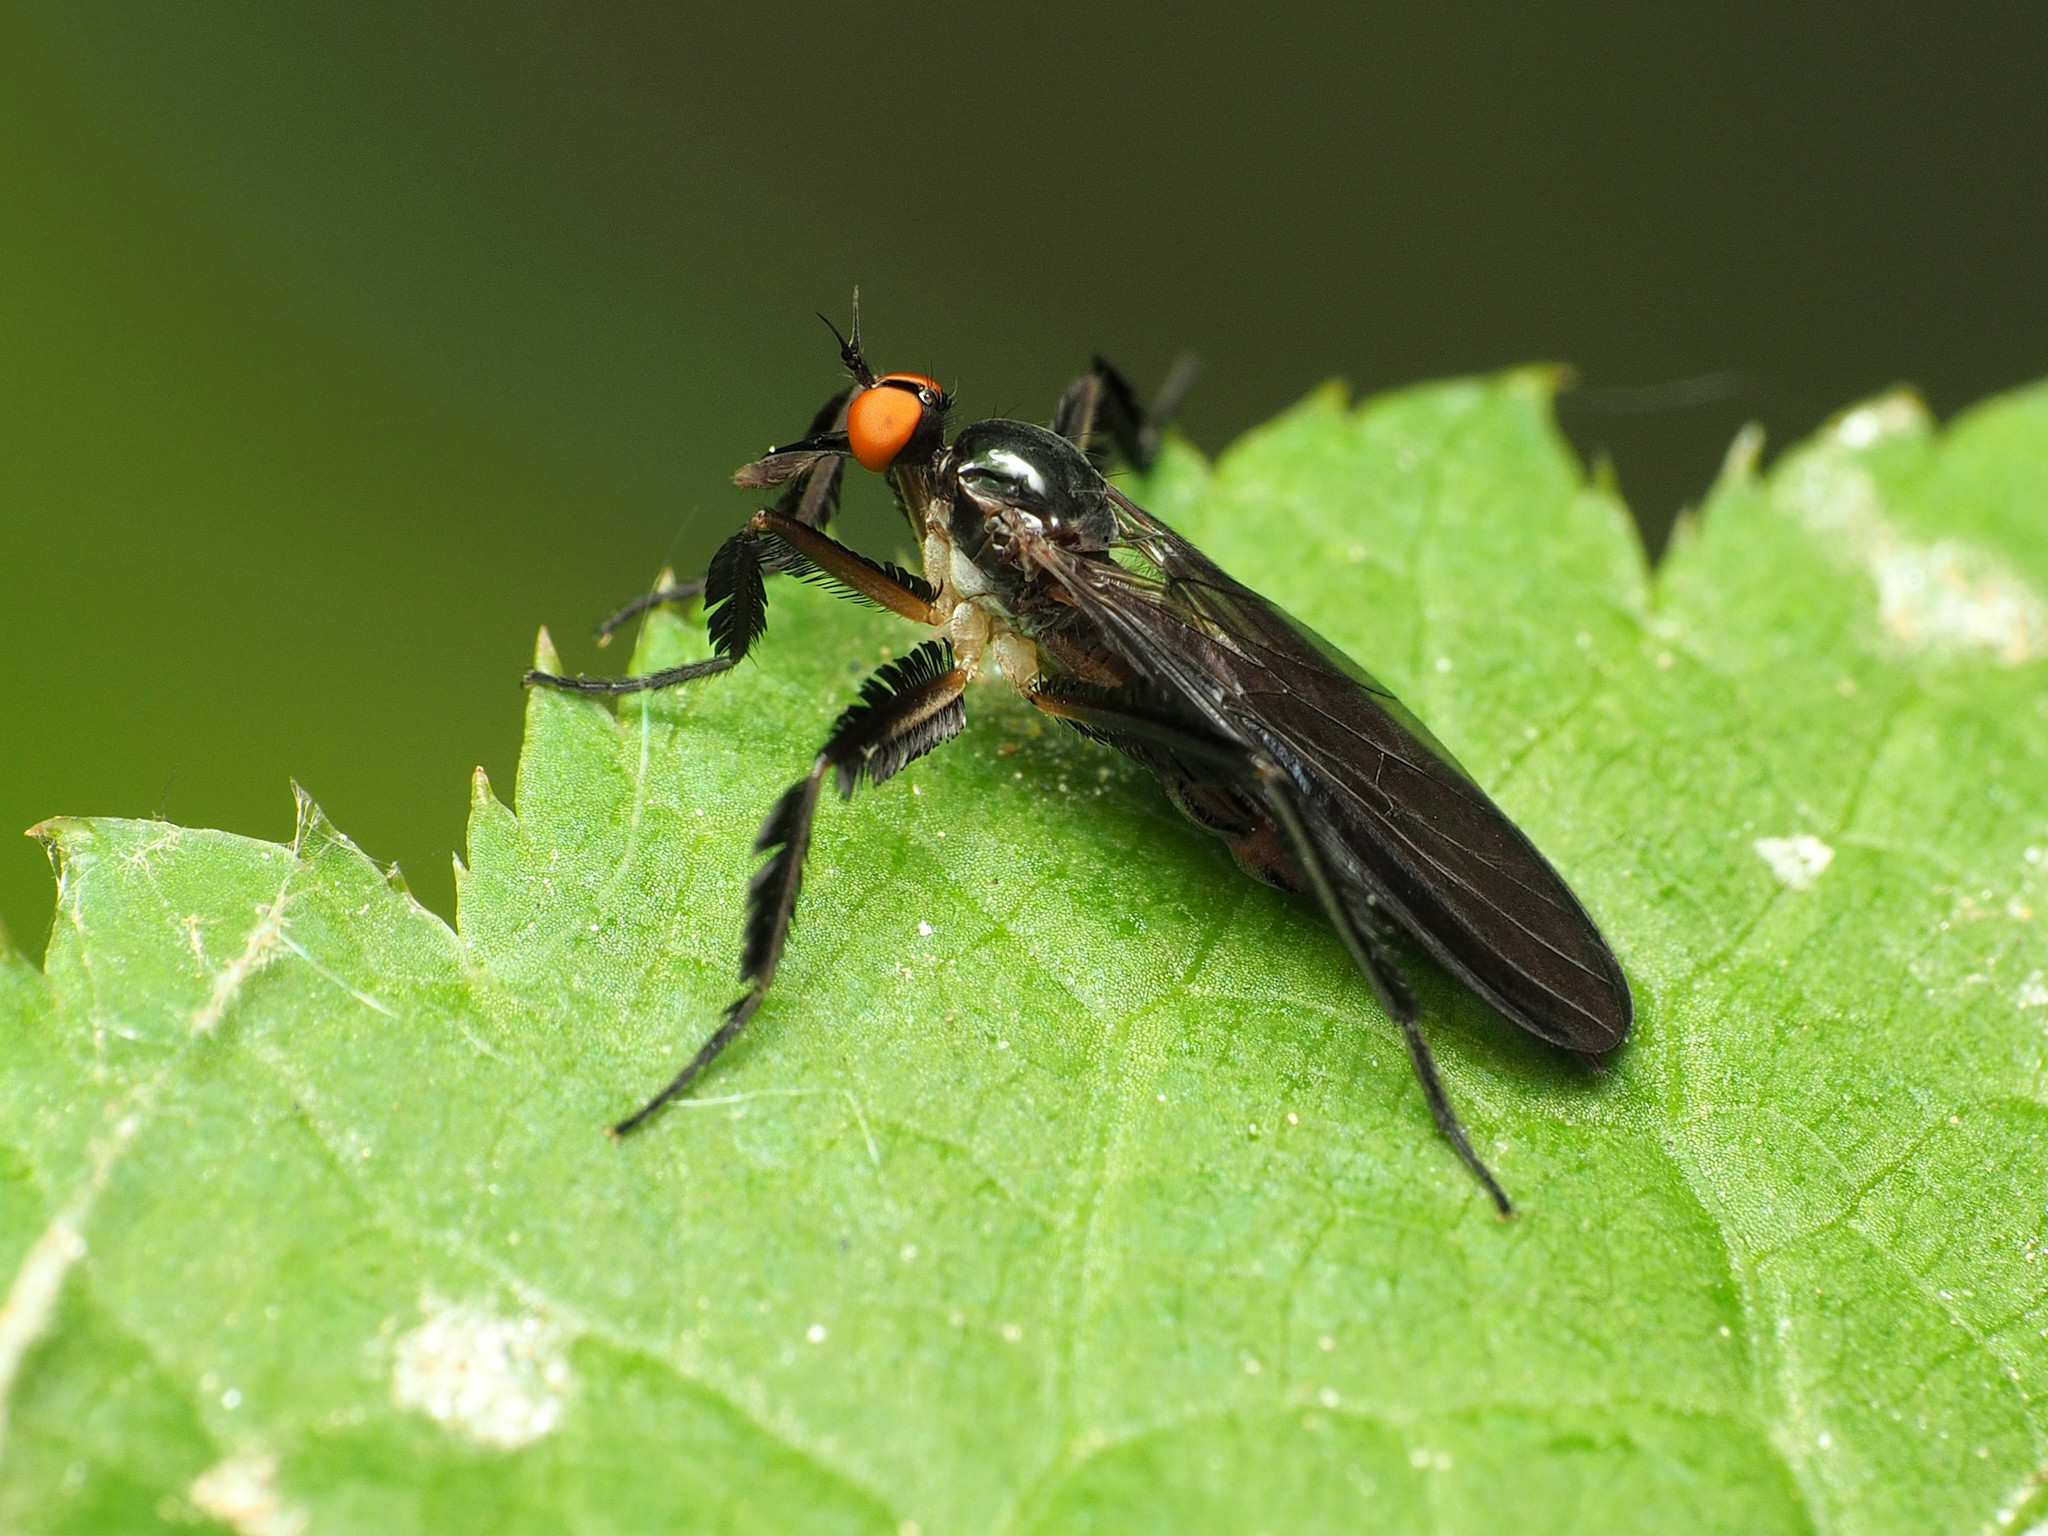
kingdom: Animalia
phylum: Arthropoda
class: Insecta
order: Diptera
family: Empididae
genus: Rhamphomyia
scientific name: Rhamphomyia longicauda
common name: Long-tailed dance fly
